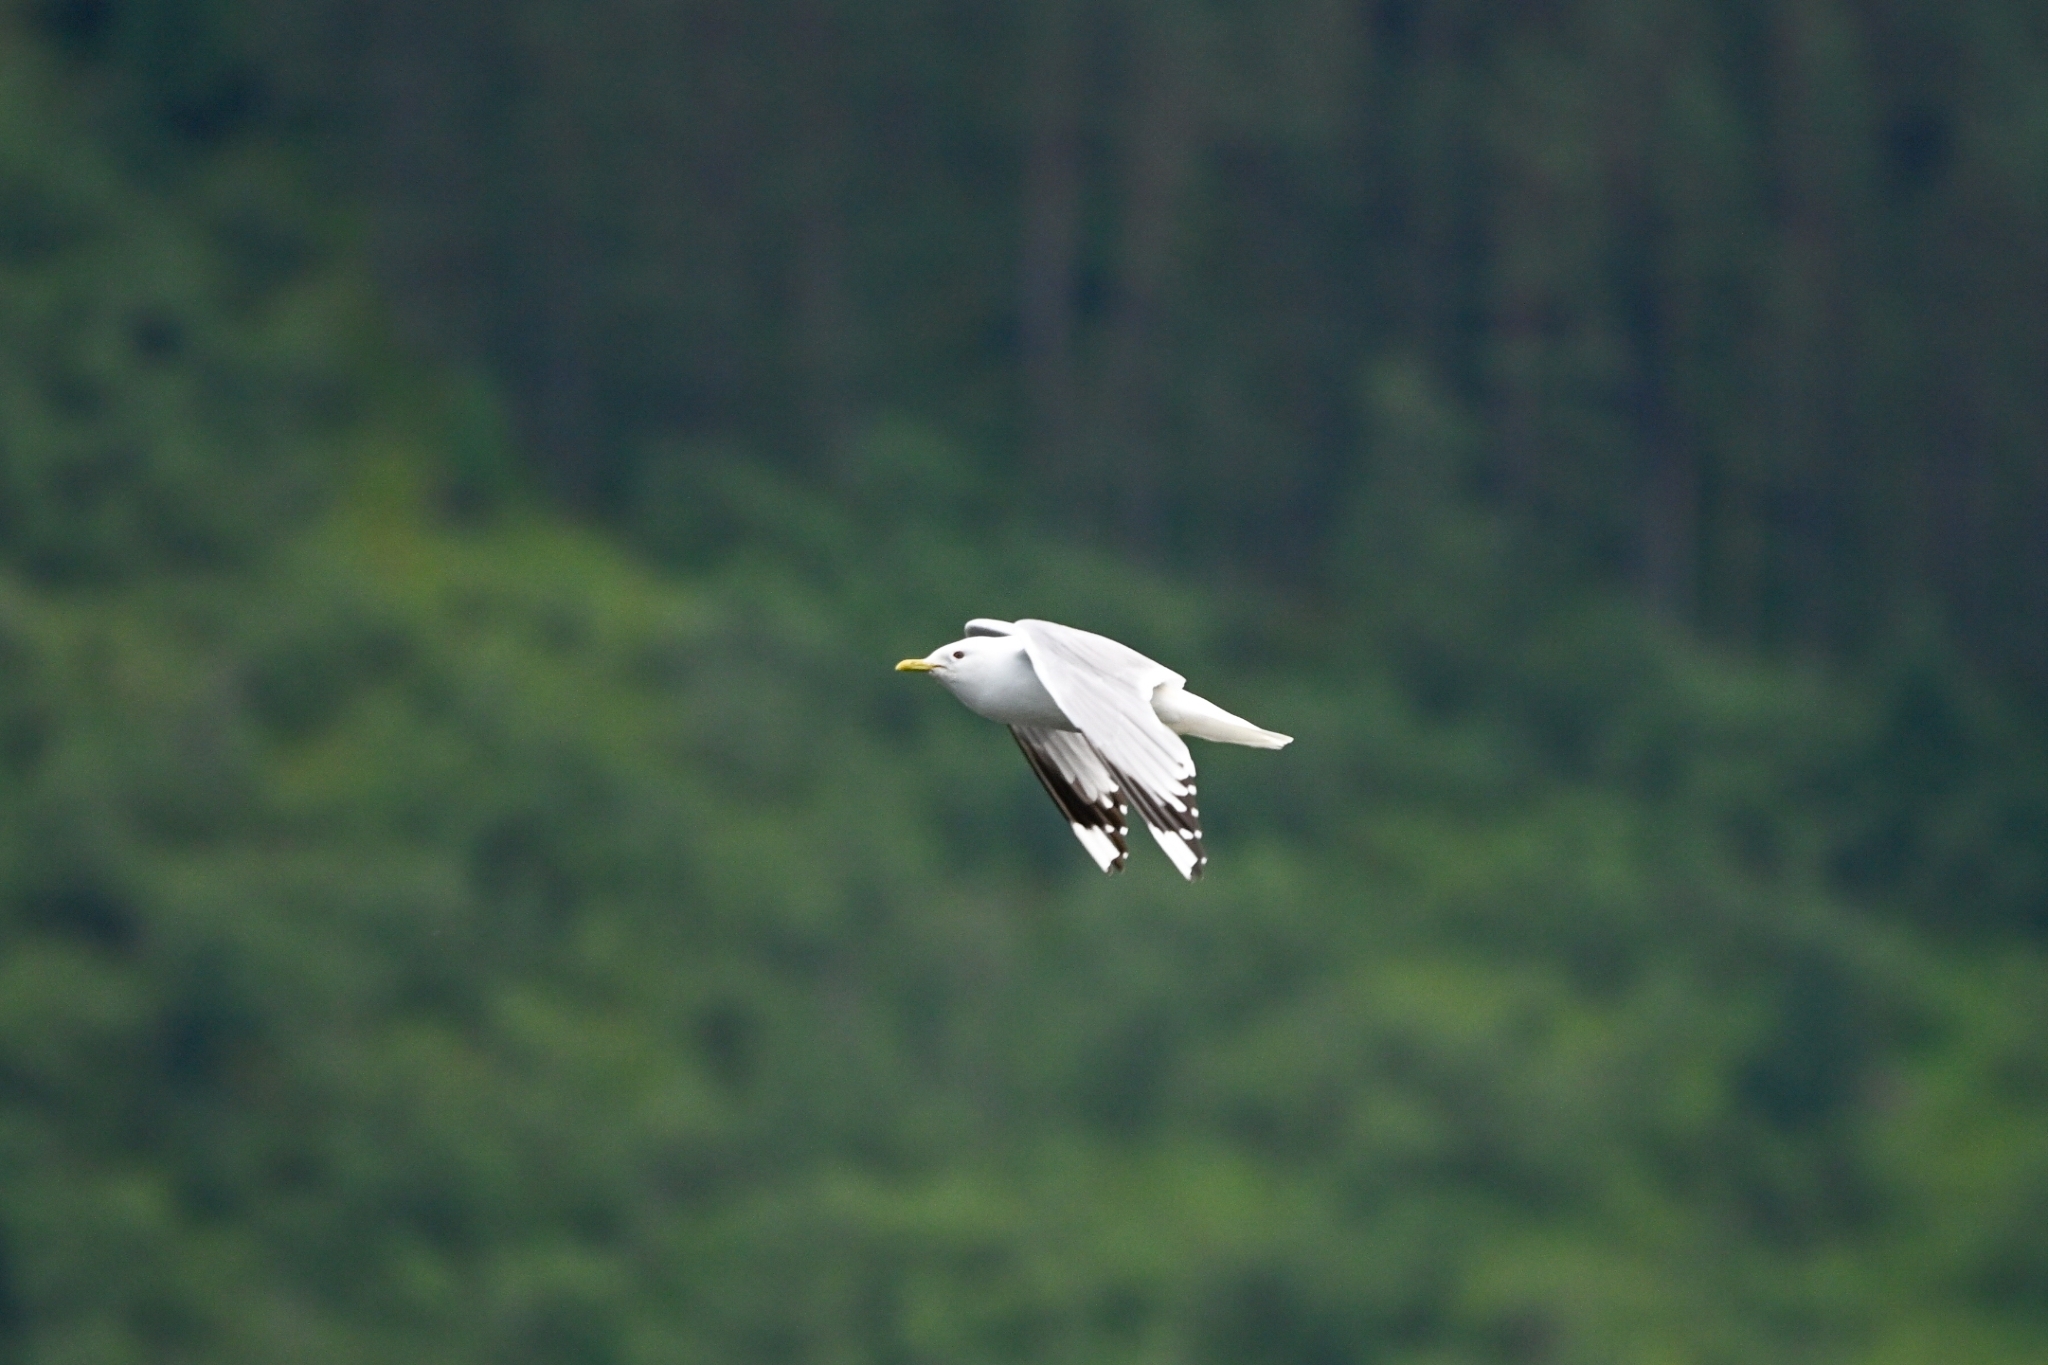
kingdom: Animalia
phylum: Chordata
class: Aves
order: Charadriiformes
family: Laridae
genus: Larus
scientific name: Larus canus
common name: Mew gull
